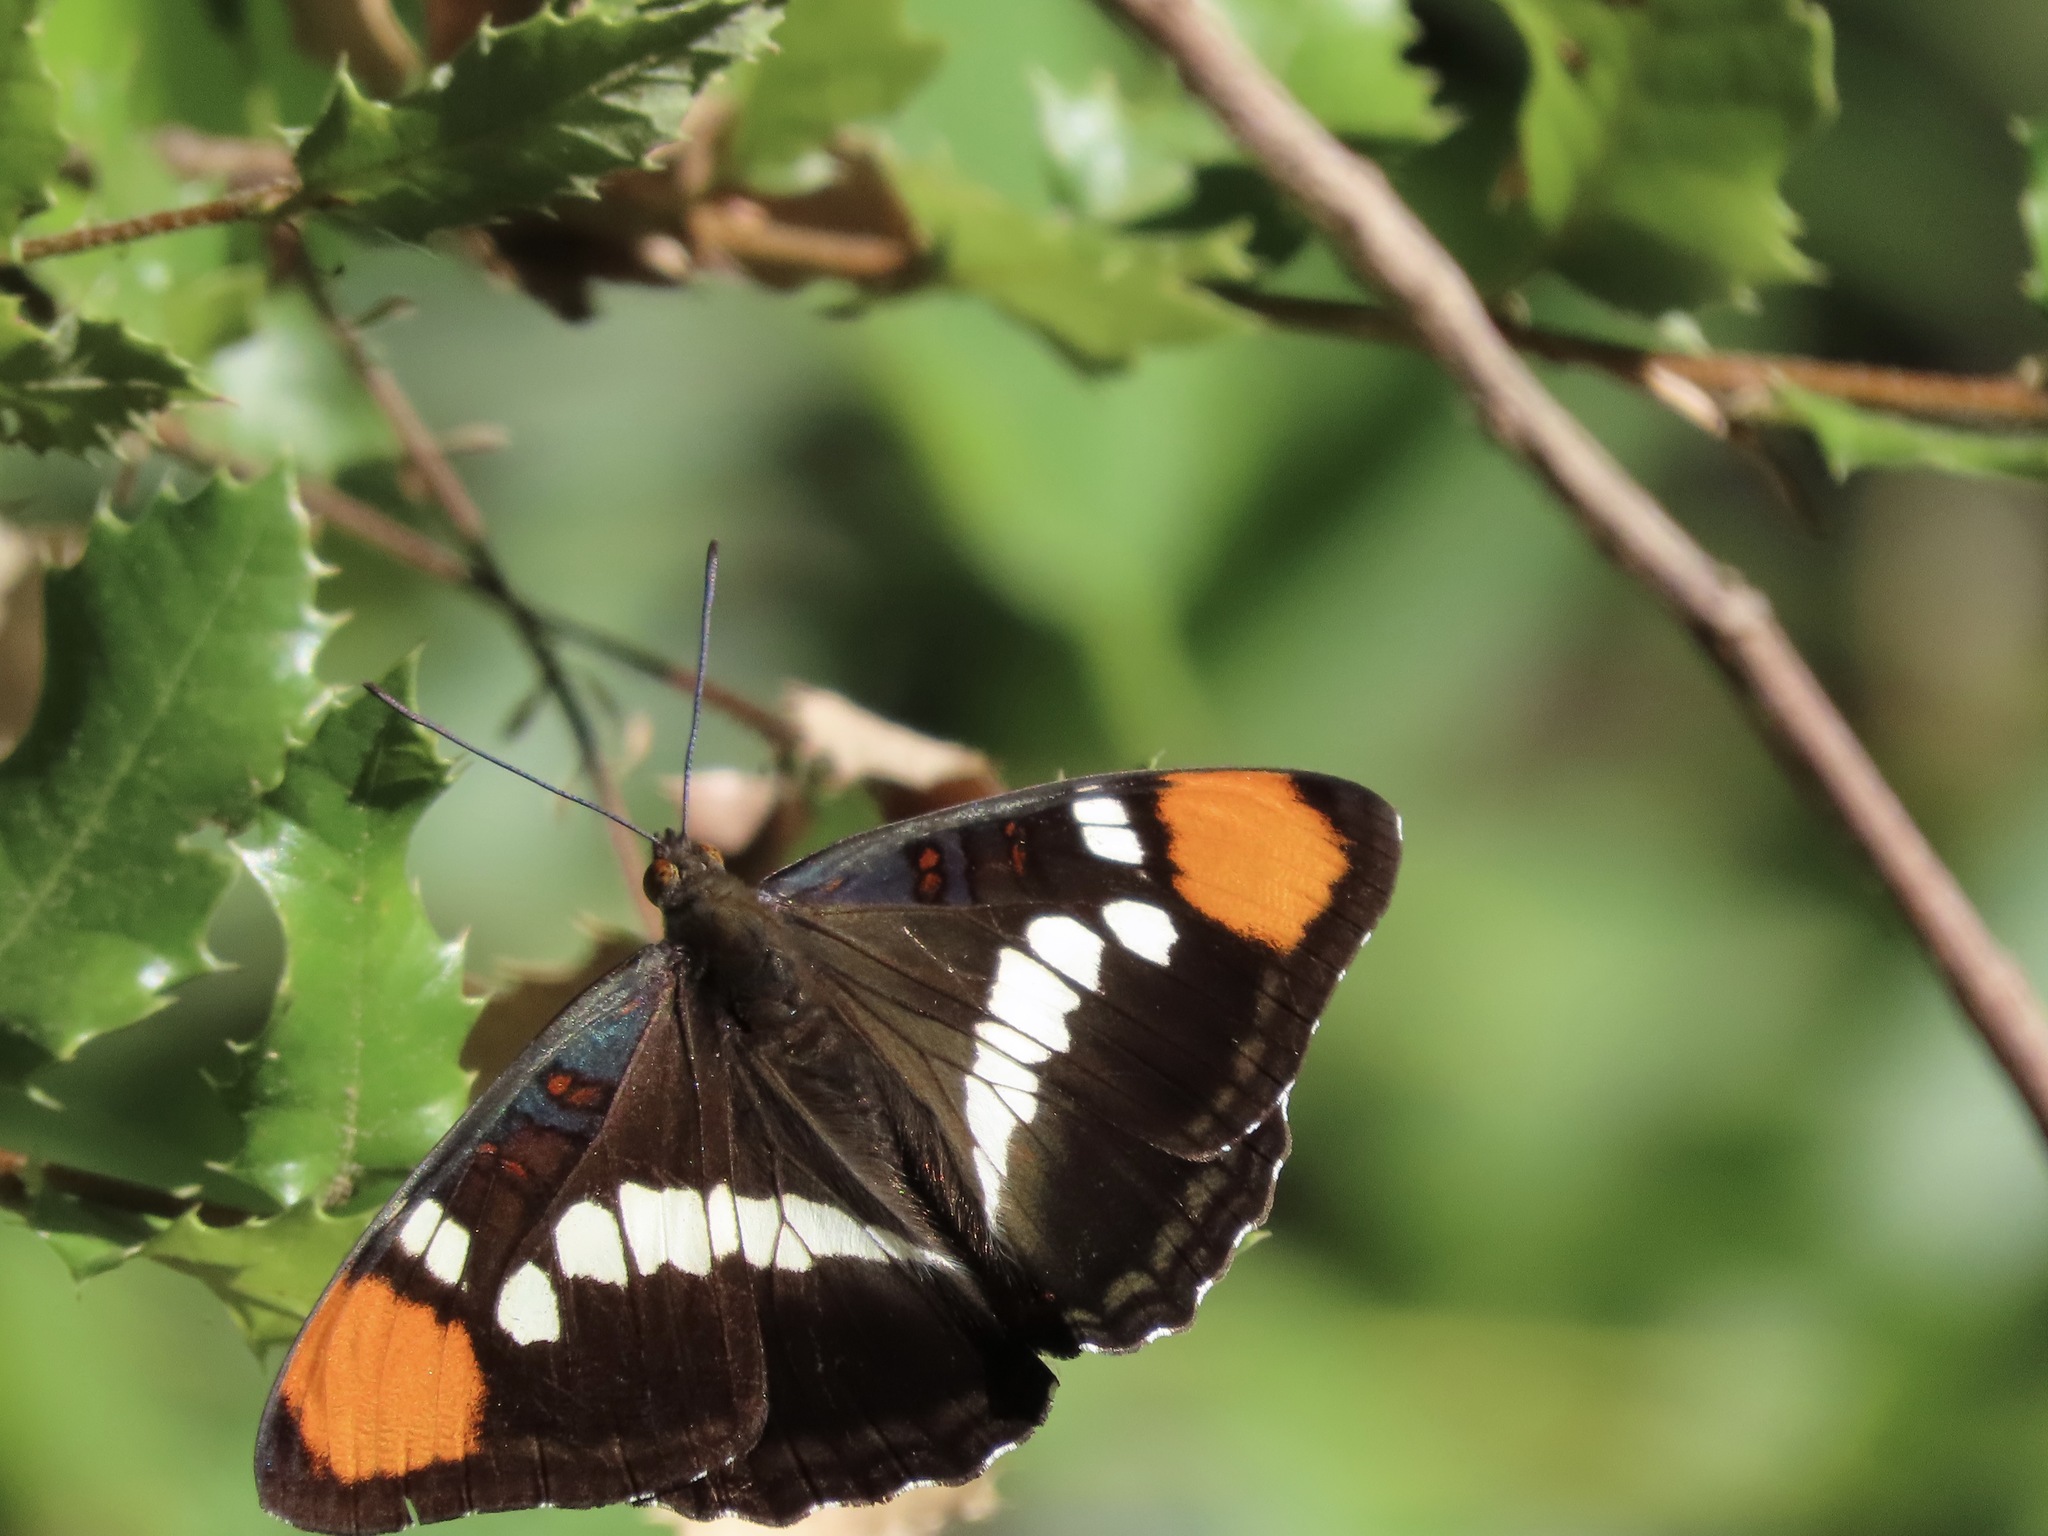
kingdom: Animalia
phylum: Arthropoda
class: Insecta
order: Lepidoptera
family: Nymphalidae
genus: Limenitis
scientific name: Limenitis bredowii
